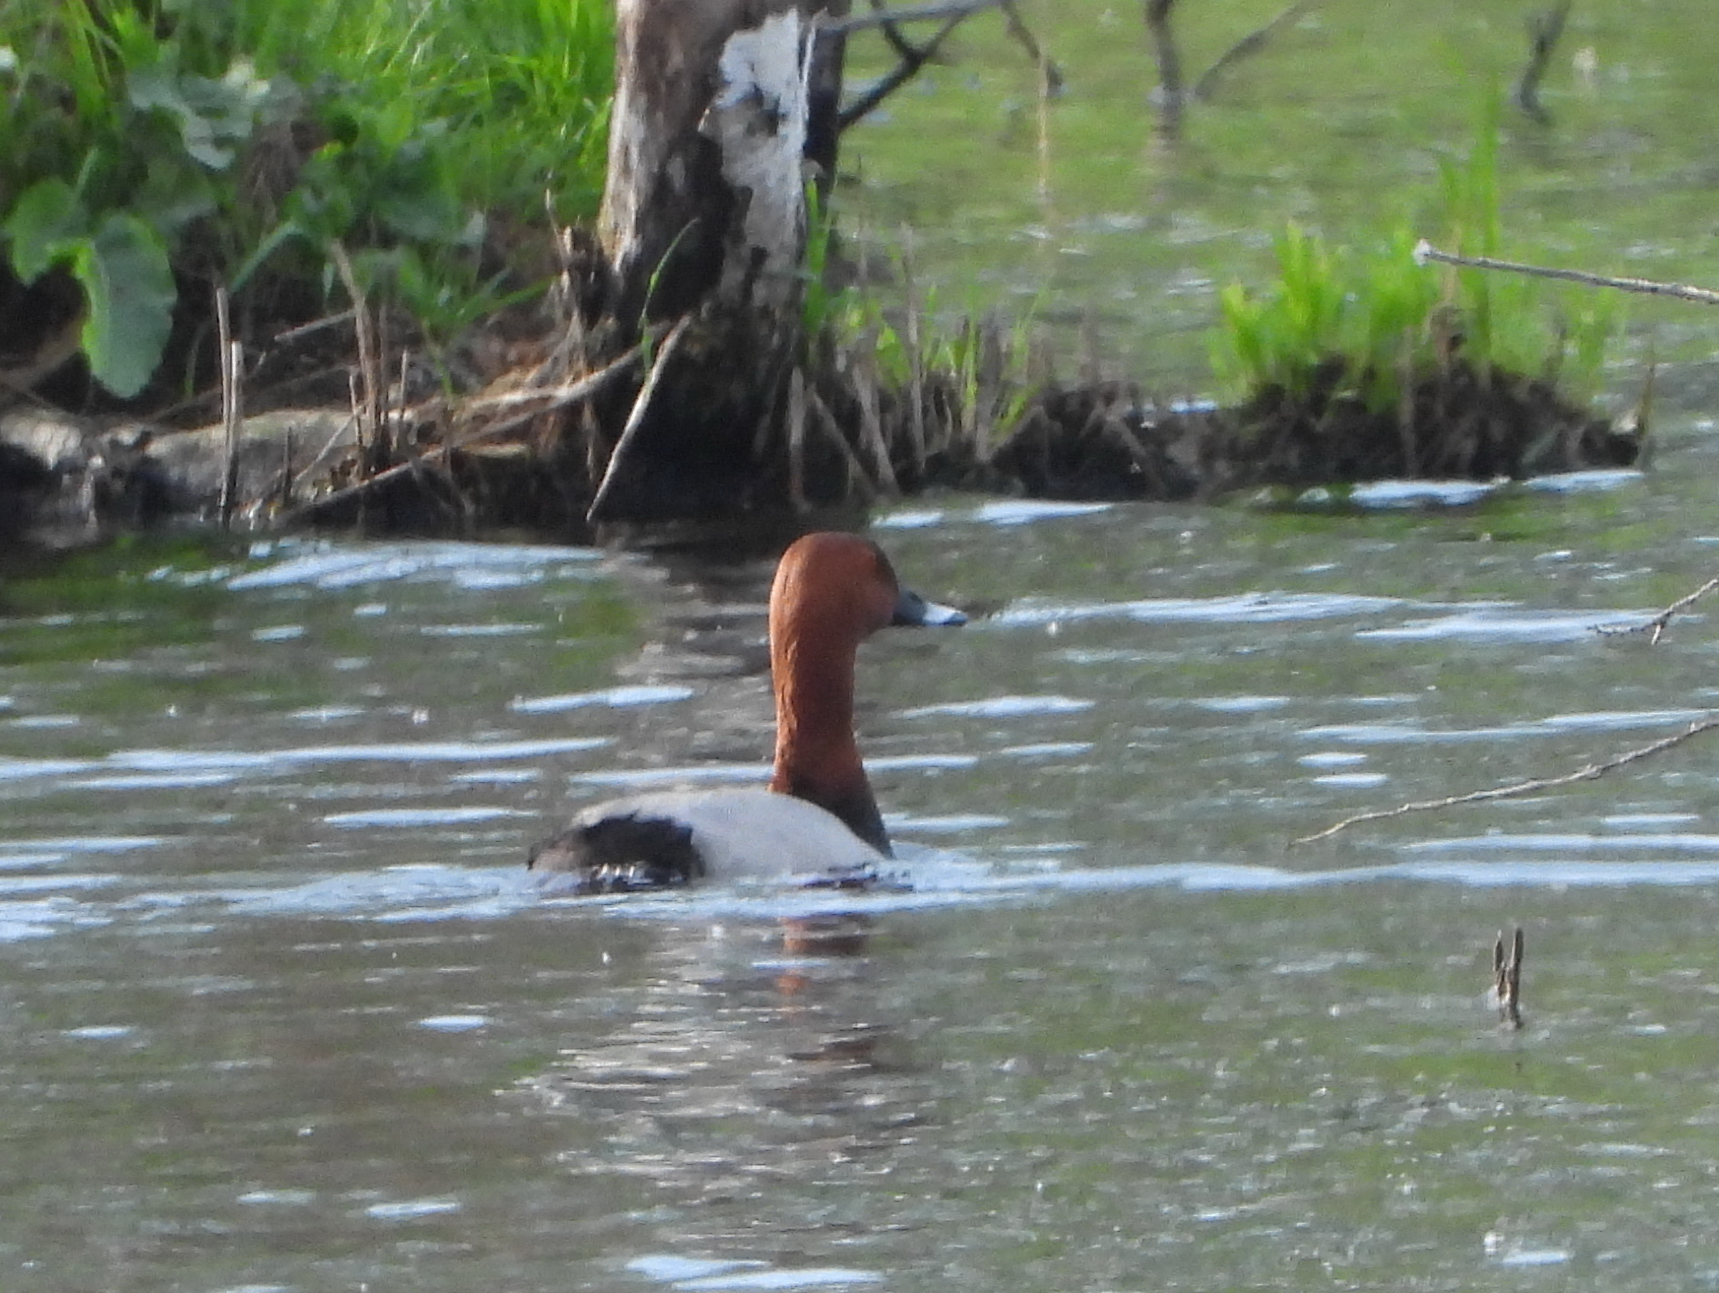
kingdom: Animalia
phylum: Chordata
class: Aves
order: Anseriformes
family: Anatidae
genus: Aythya
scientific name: Aythya ferina
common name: Common pochard
